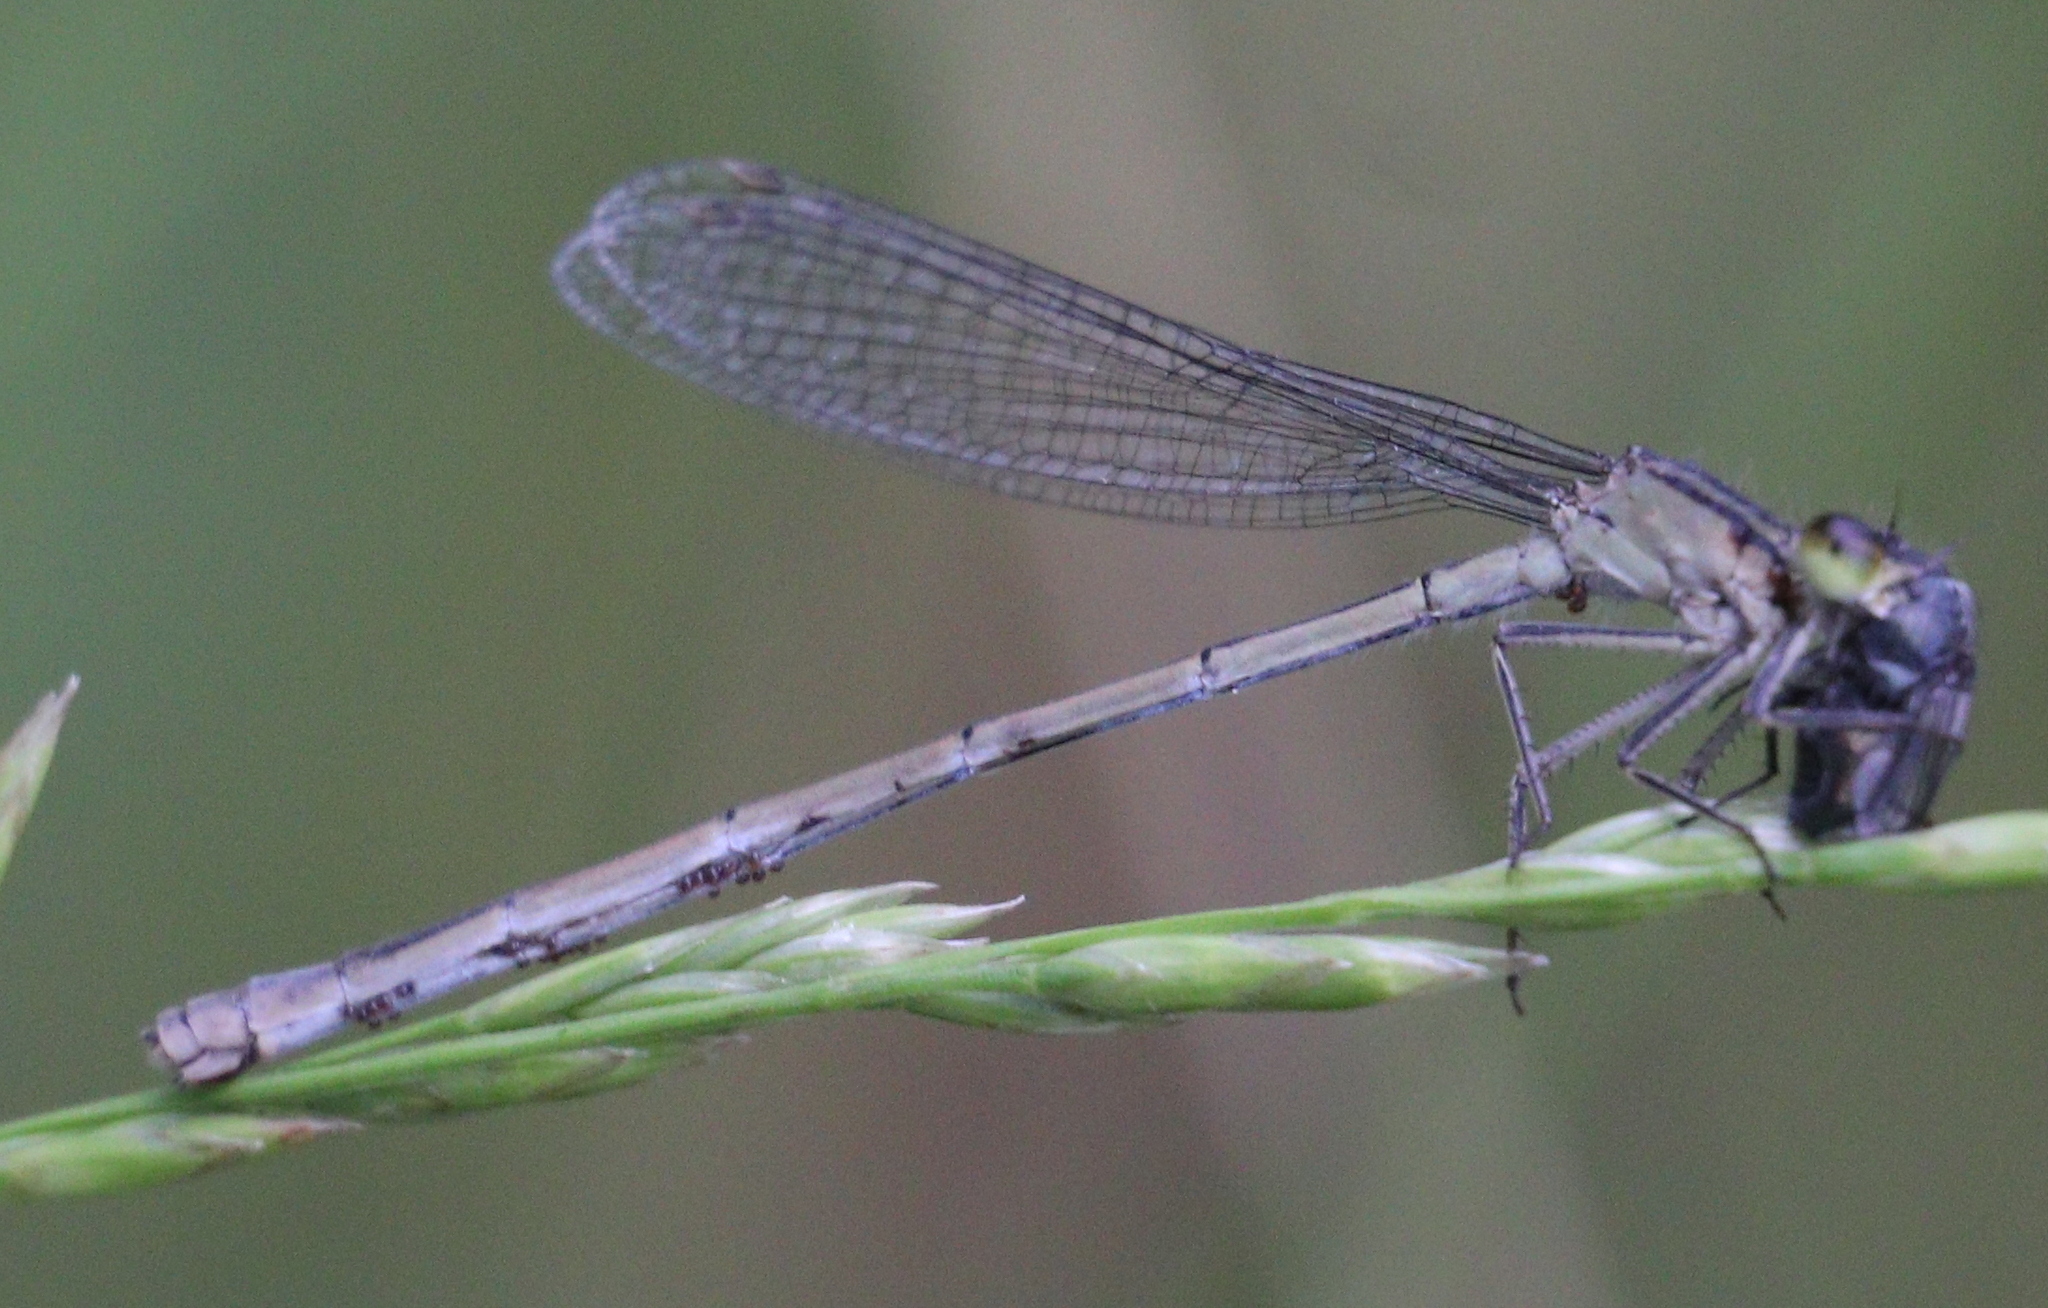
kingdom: Animalia
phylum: Arthropoda
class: Insecta
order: Odonata
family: Coenagrionidae
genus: Ischnura
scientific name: Ischnura elegans
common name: Blue-tailed damselfly
